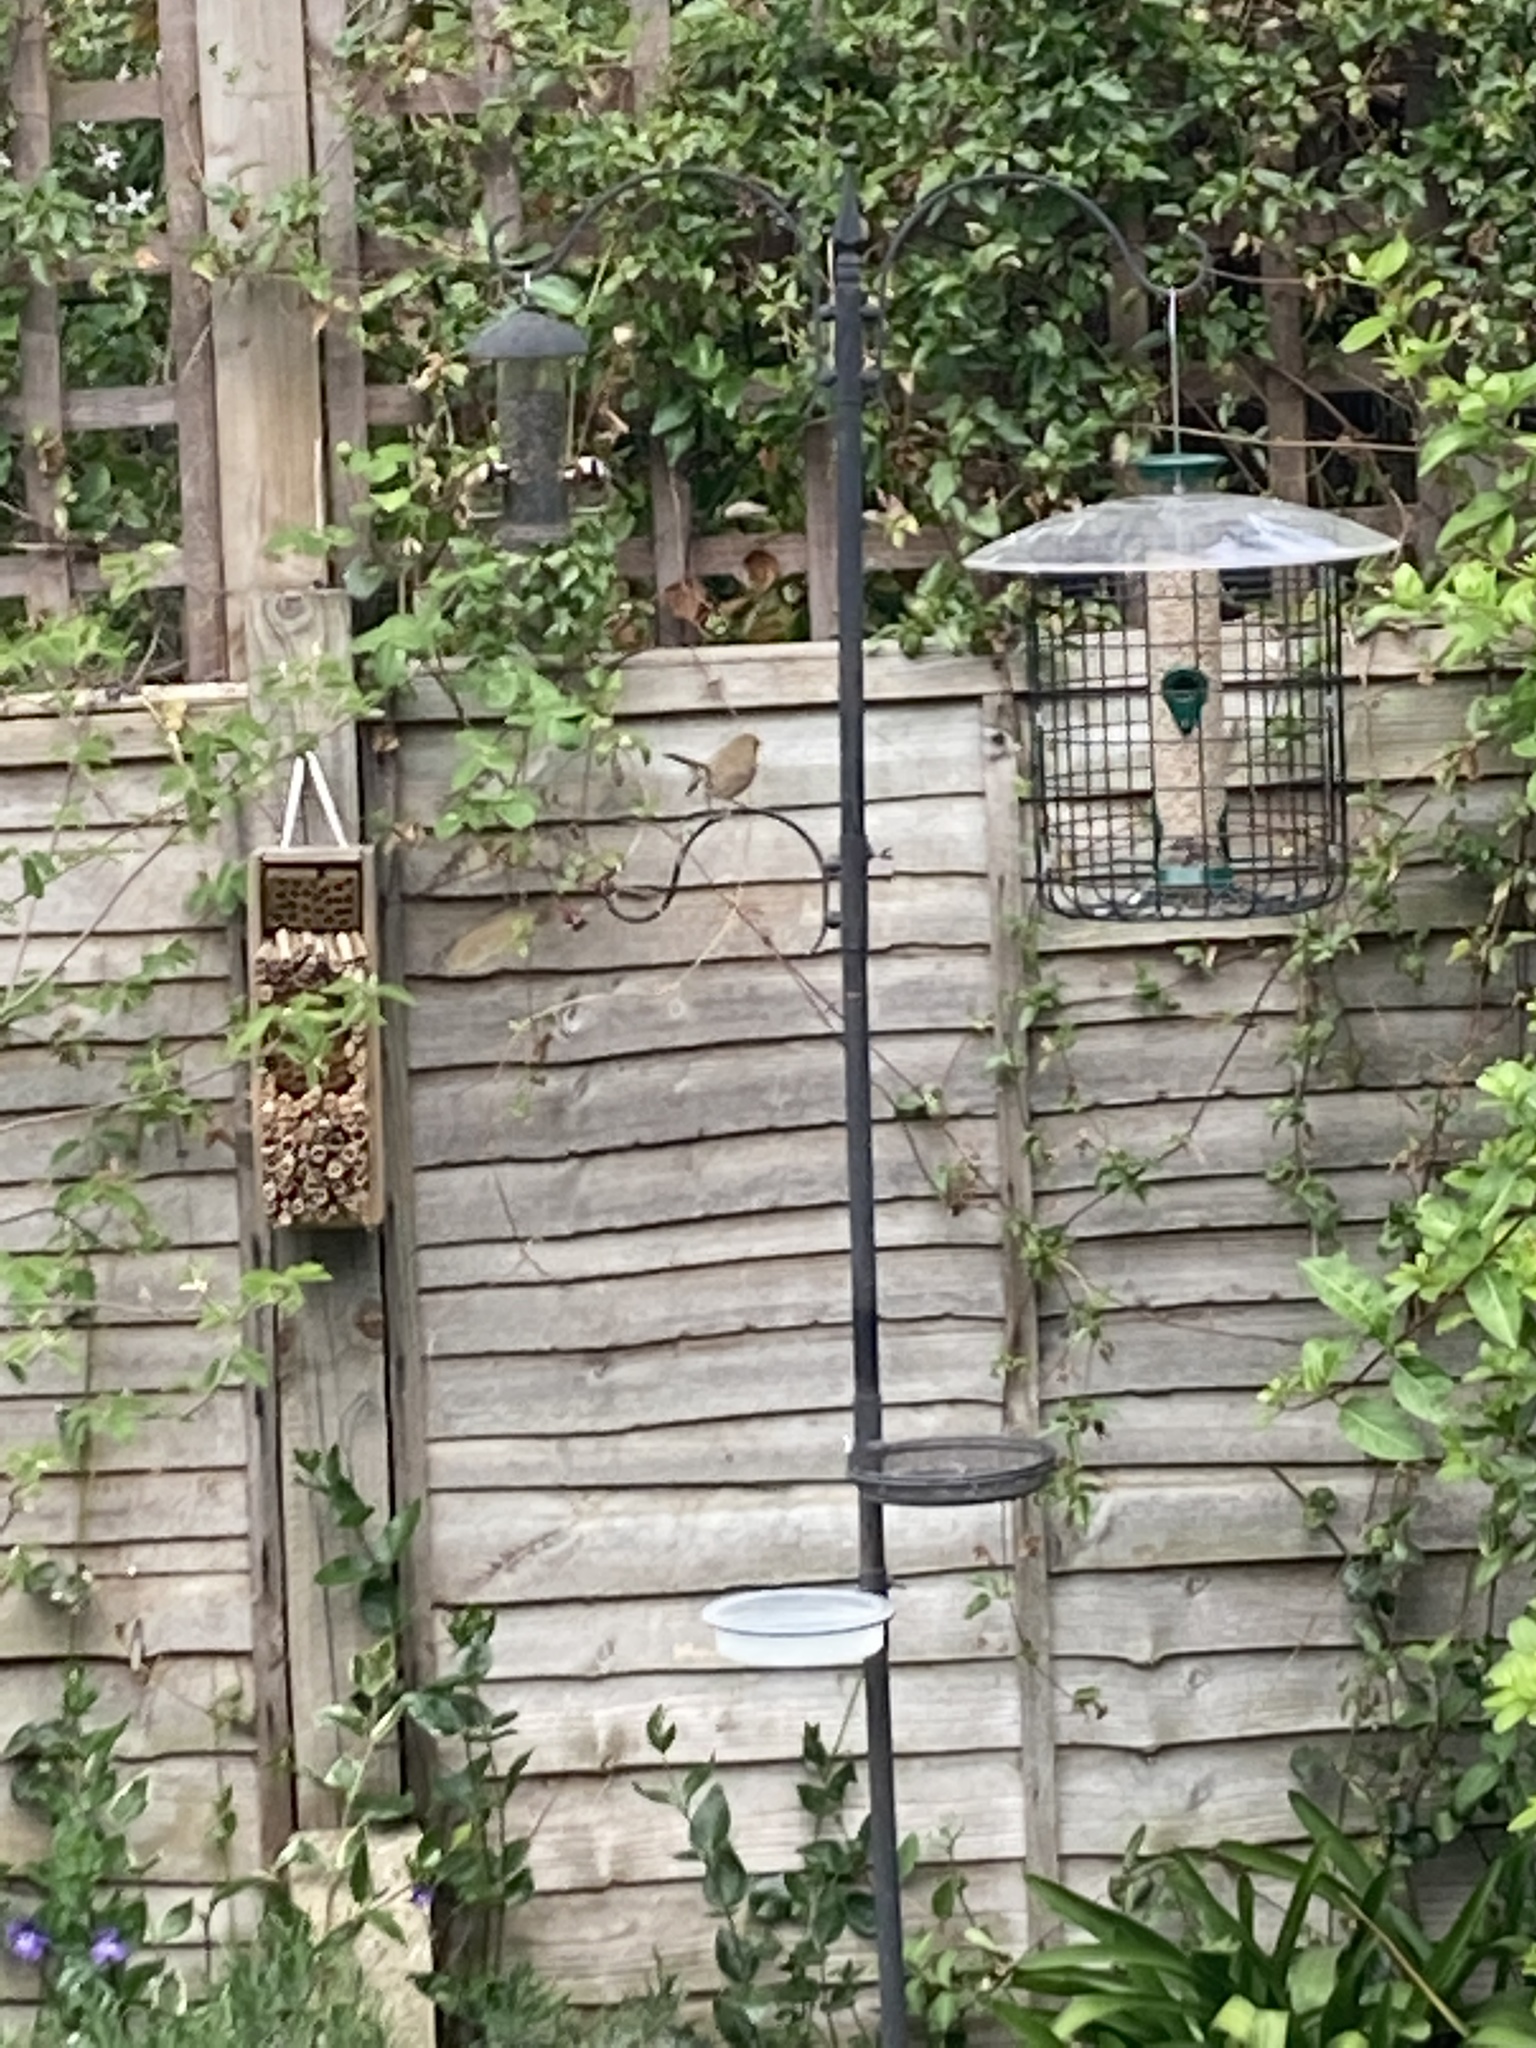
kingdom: Animalia
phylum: Chordata
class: Aves
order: Passeriformes
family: Muscicapidae
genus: Erithacus
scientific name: Erithacus rubecula
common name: European robin
